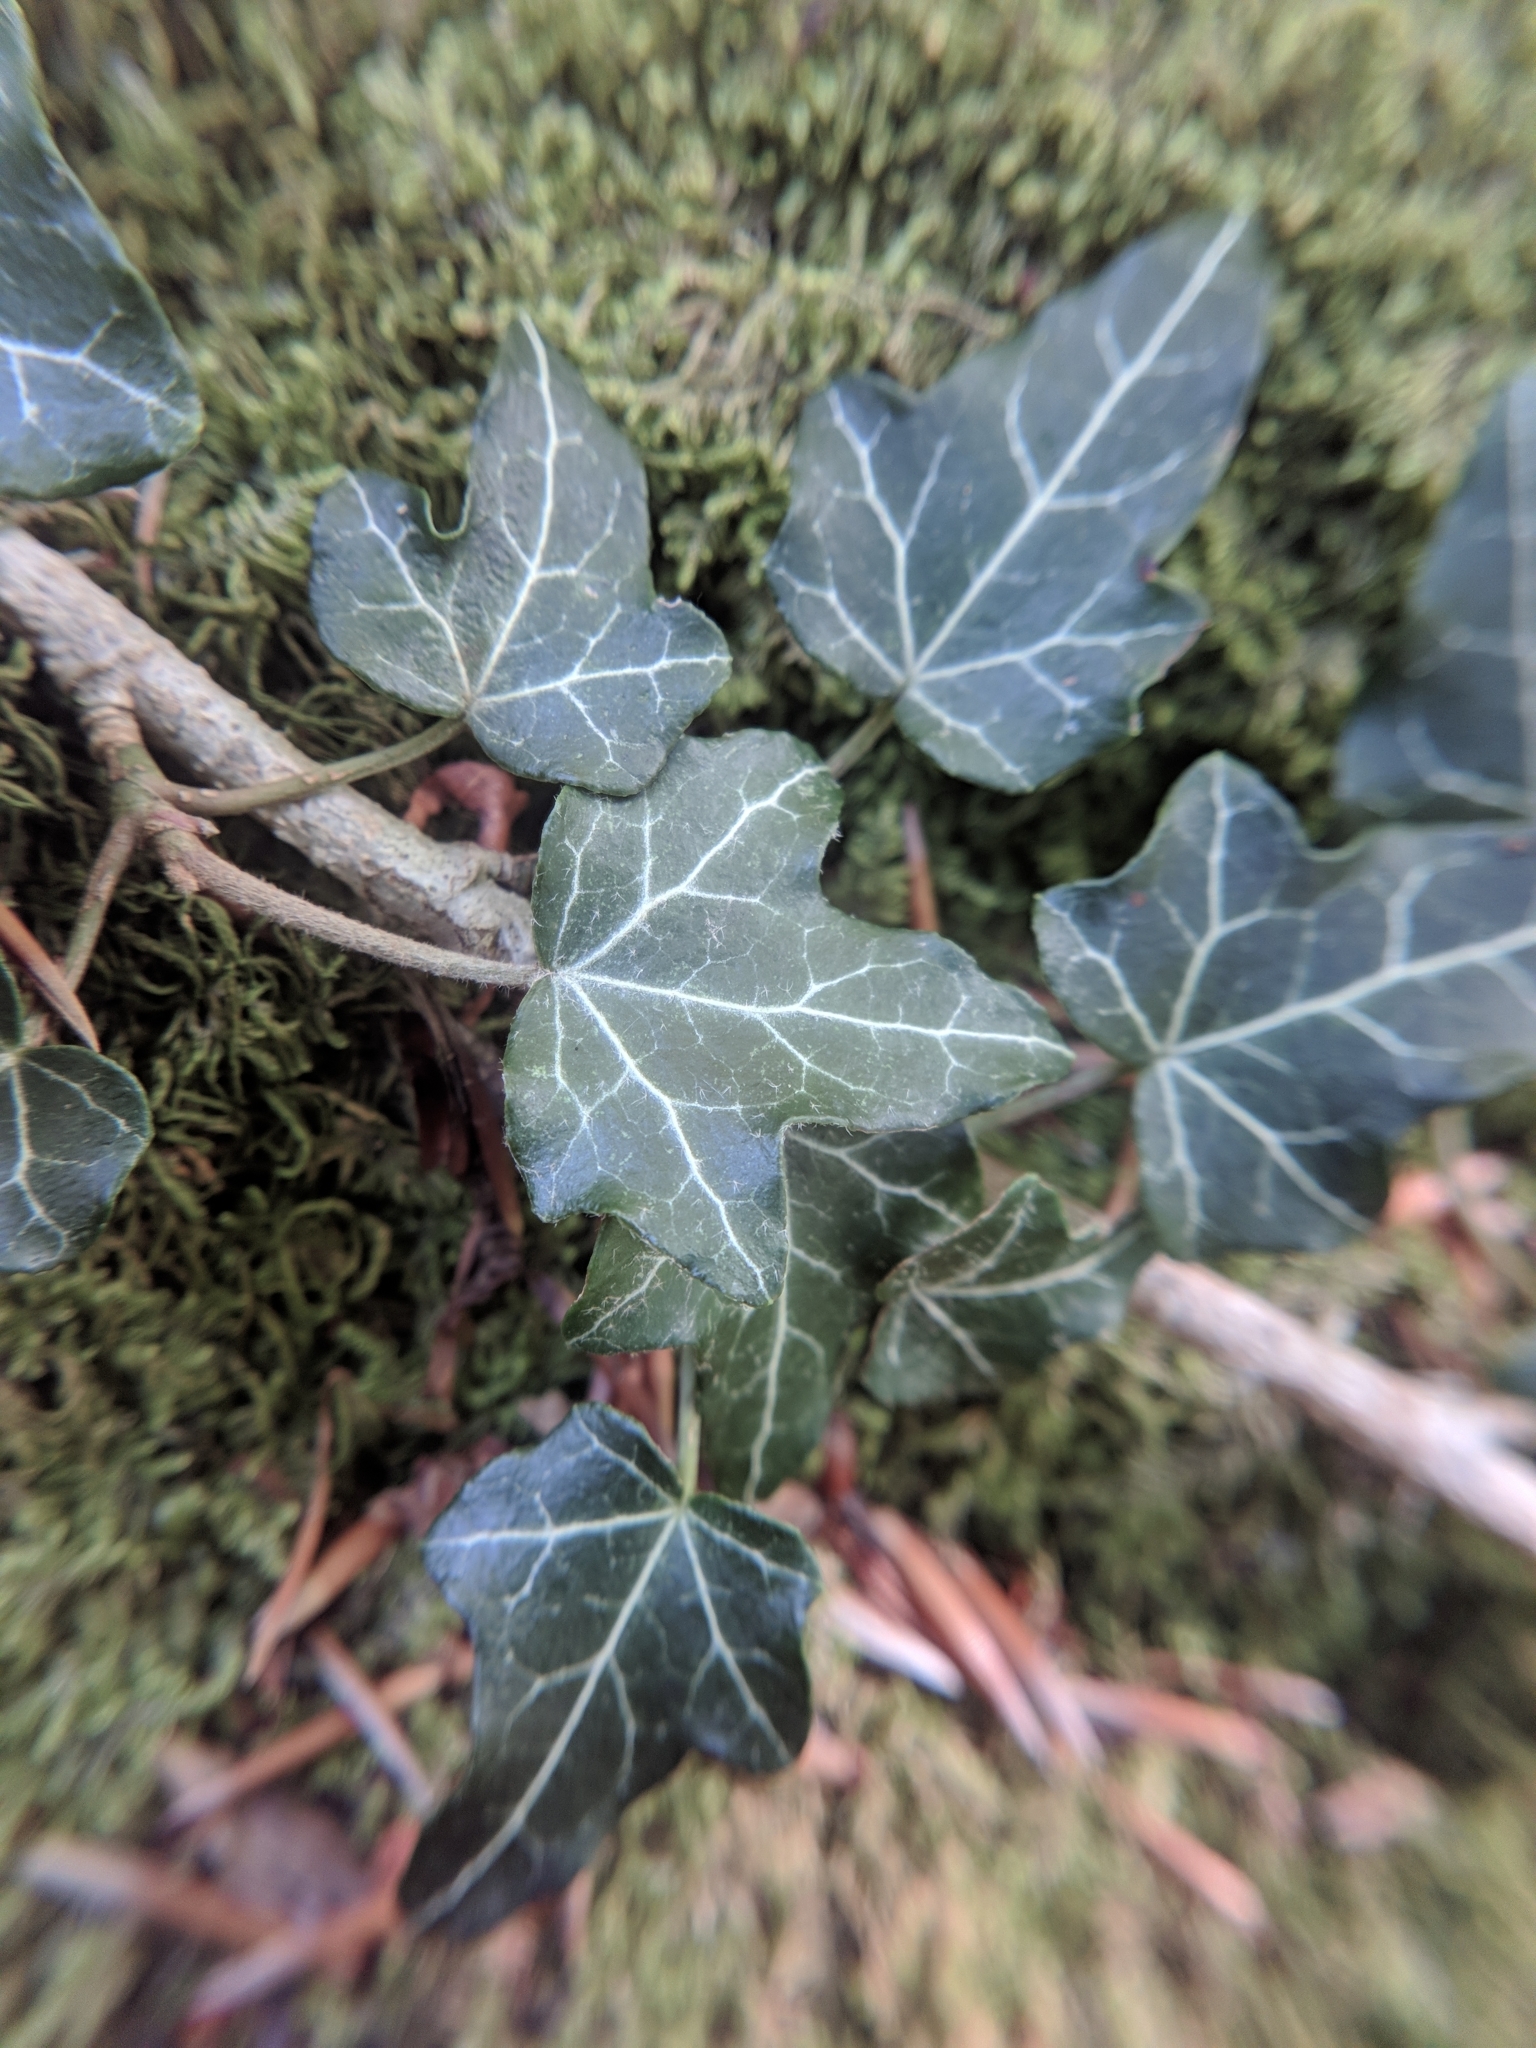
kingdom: Plantae
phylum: Tracheophyta
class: Magnoliopsida
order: Apiales
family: Araliaceae
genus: Hedera
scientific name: Hedera helix
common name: Ivy
